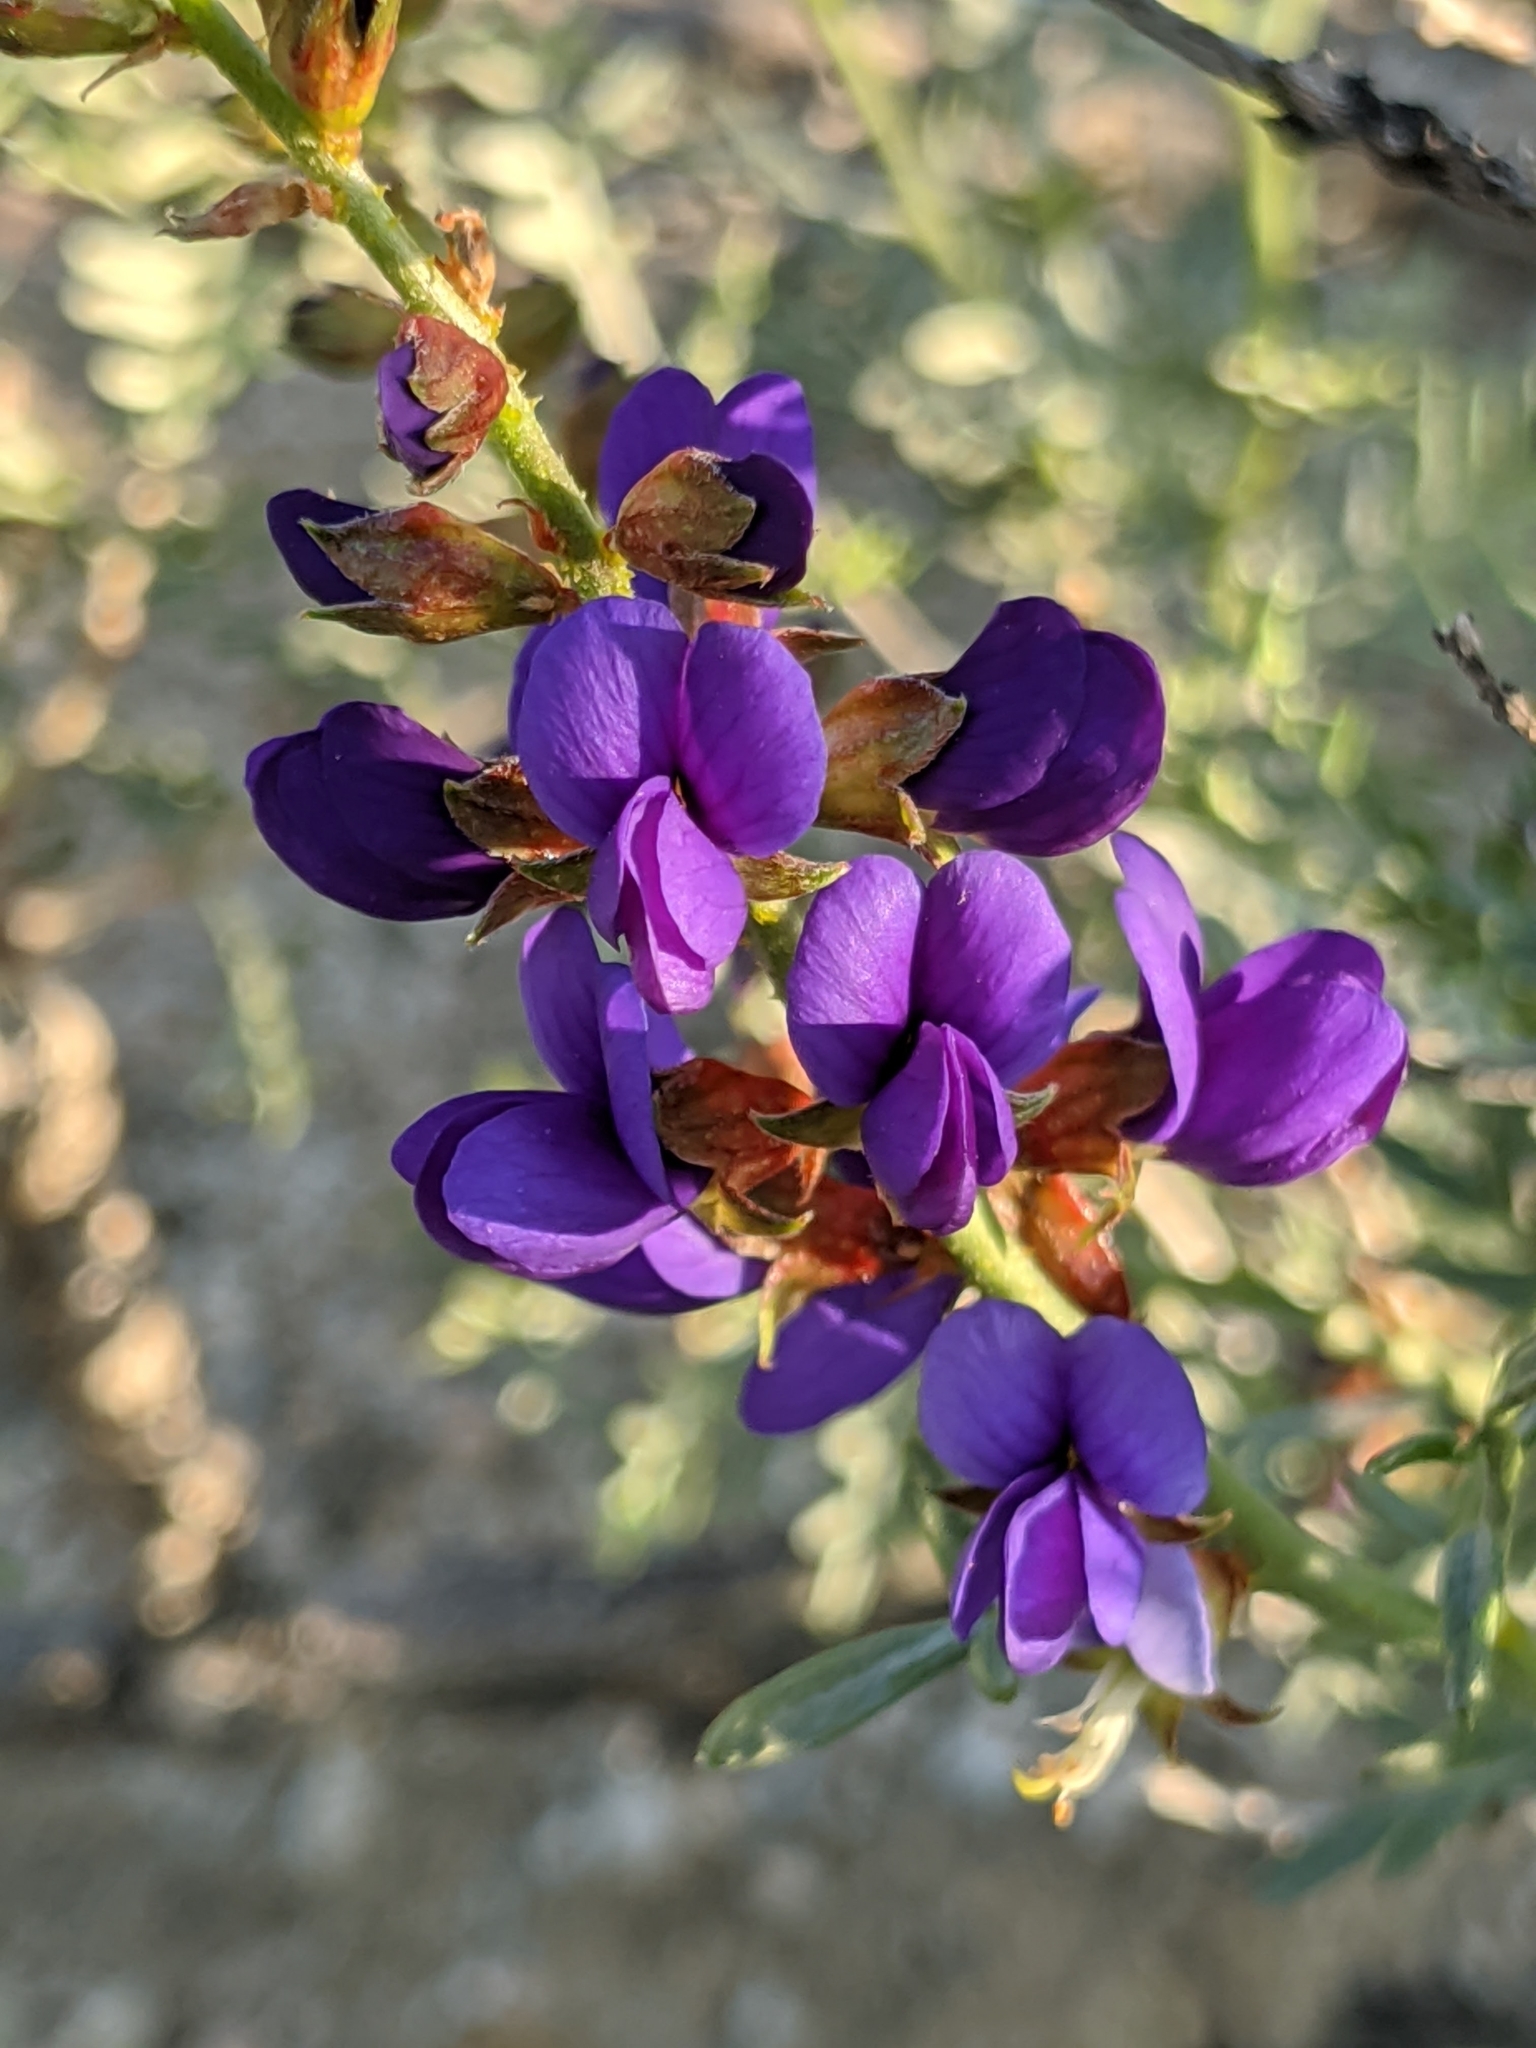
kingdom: Plantae
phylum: Tracheophyta
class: Magnoliopsida
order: Fabales
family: Fabaceae
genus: Psorothamnus
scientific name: Psorothamnus arborescens
